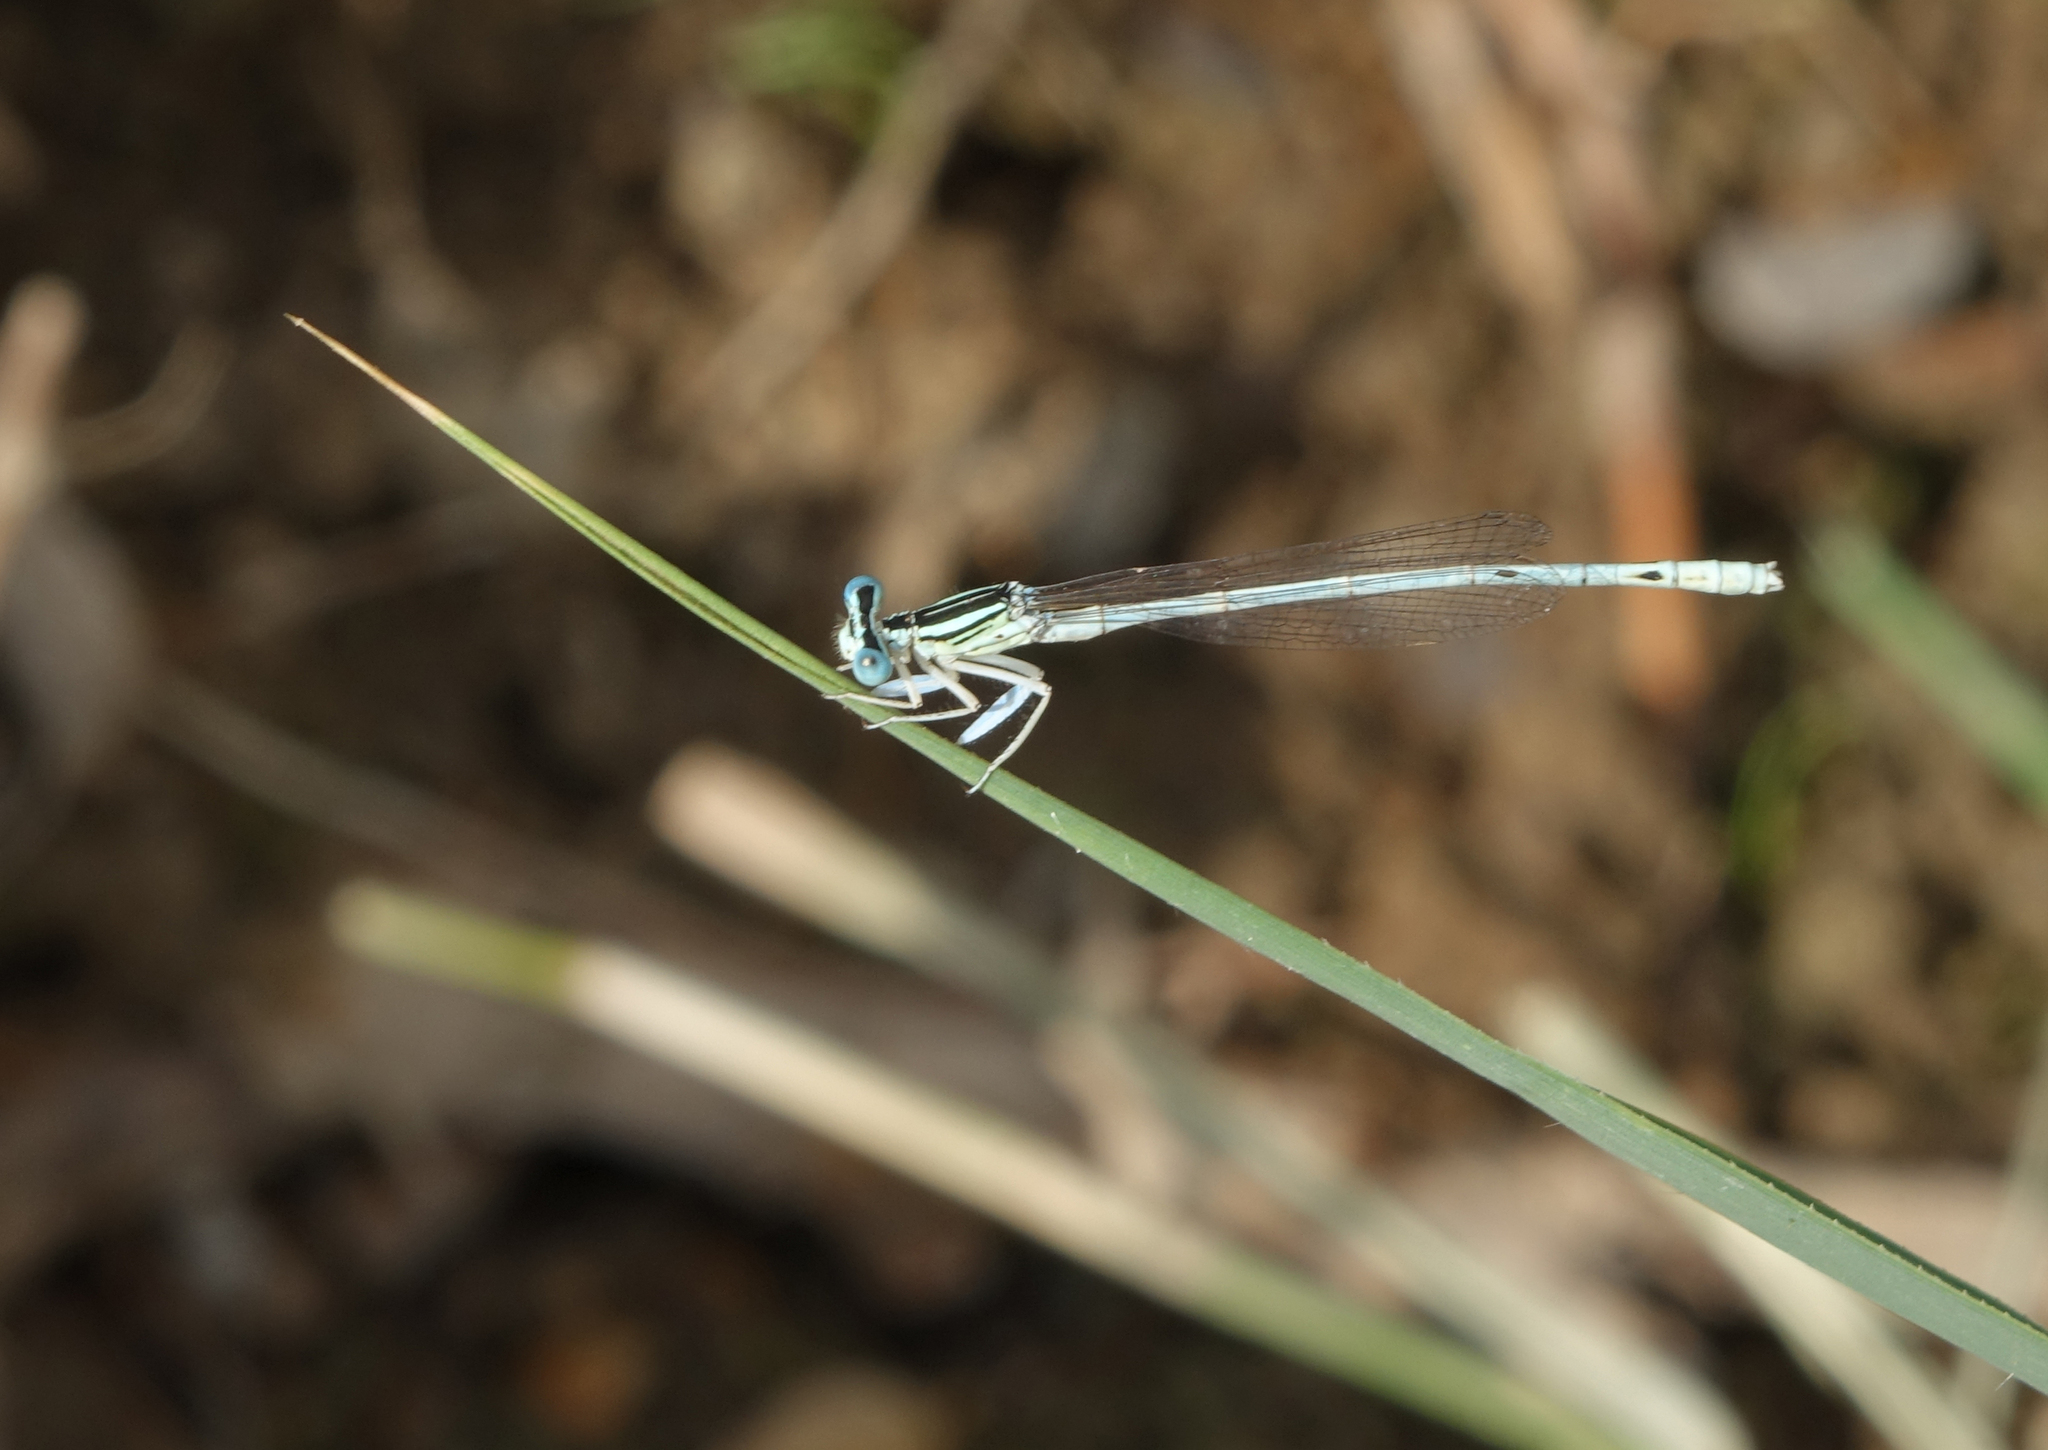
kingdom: Animalia
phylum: Arthropoda
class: Insecta
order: Odonata
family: Platycnemididae
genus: Platycnemis
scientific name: Platycnemis dealbata
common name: Ivory featherleg
